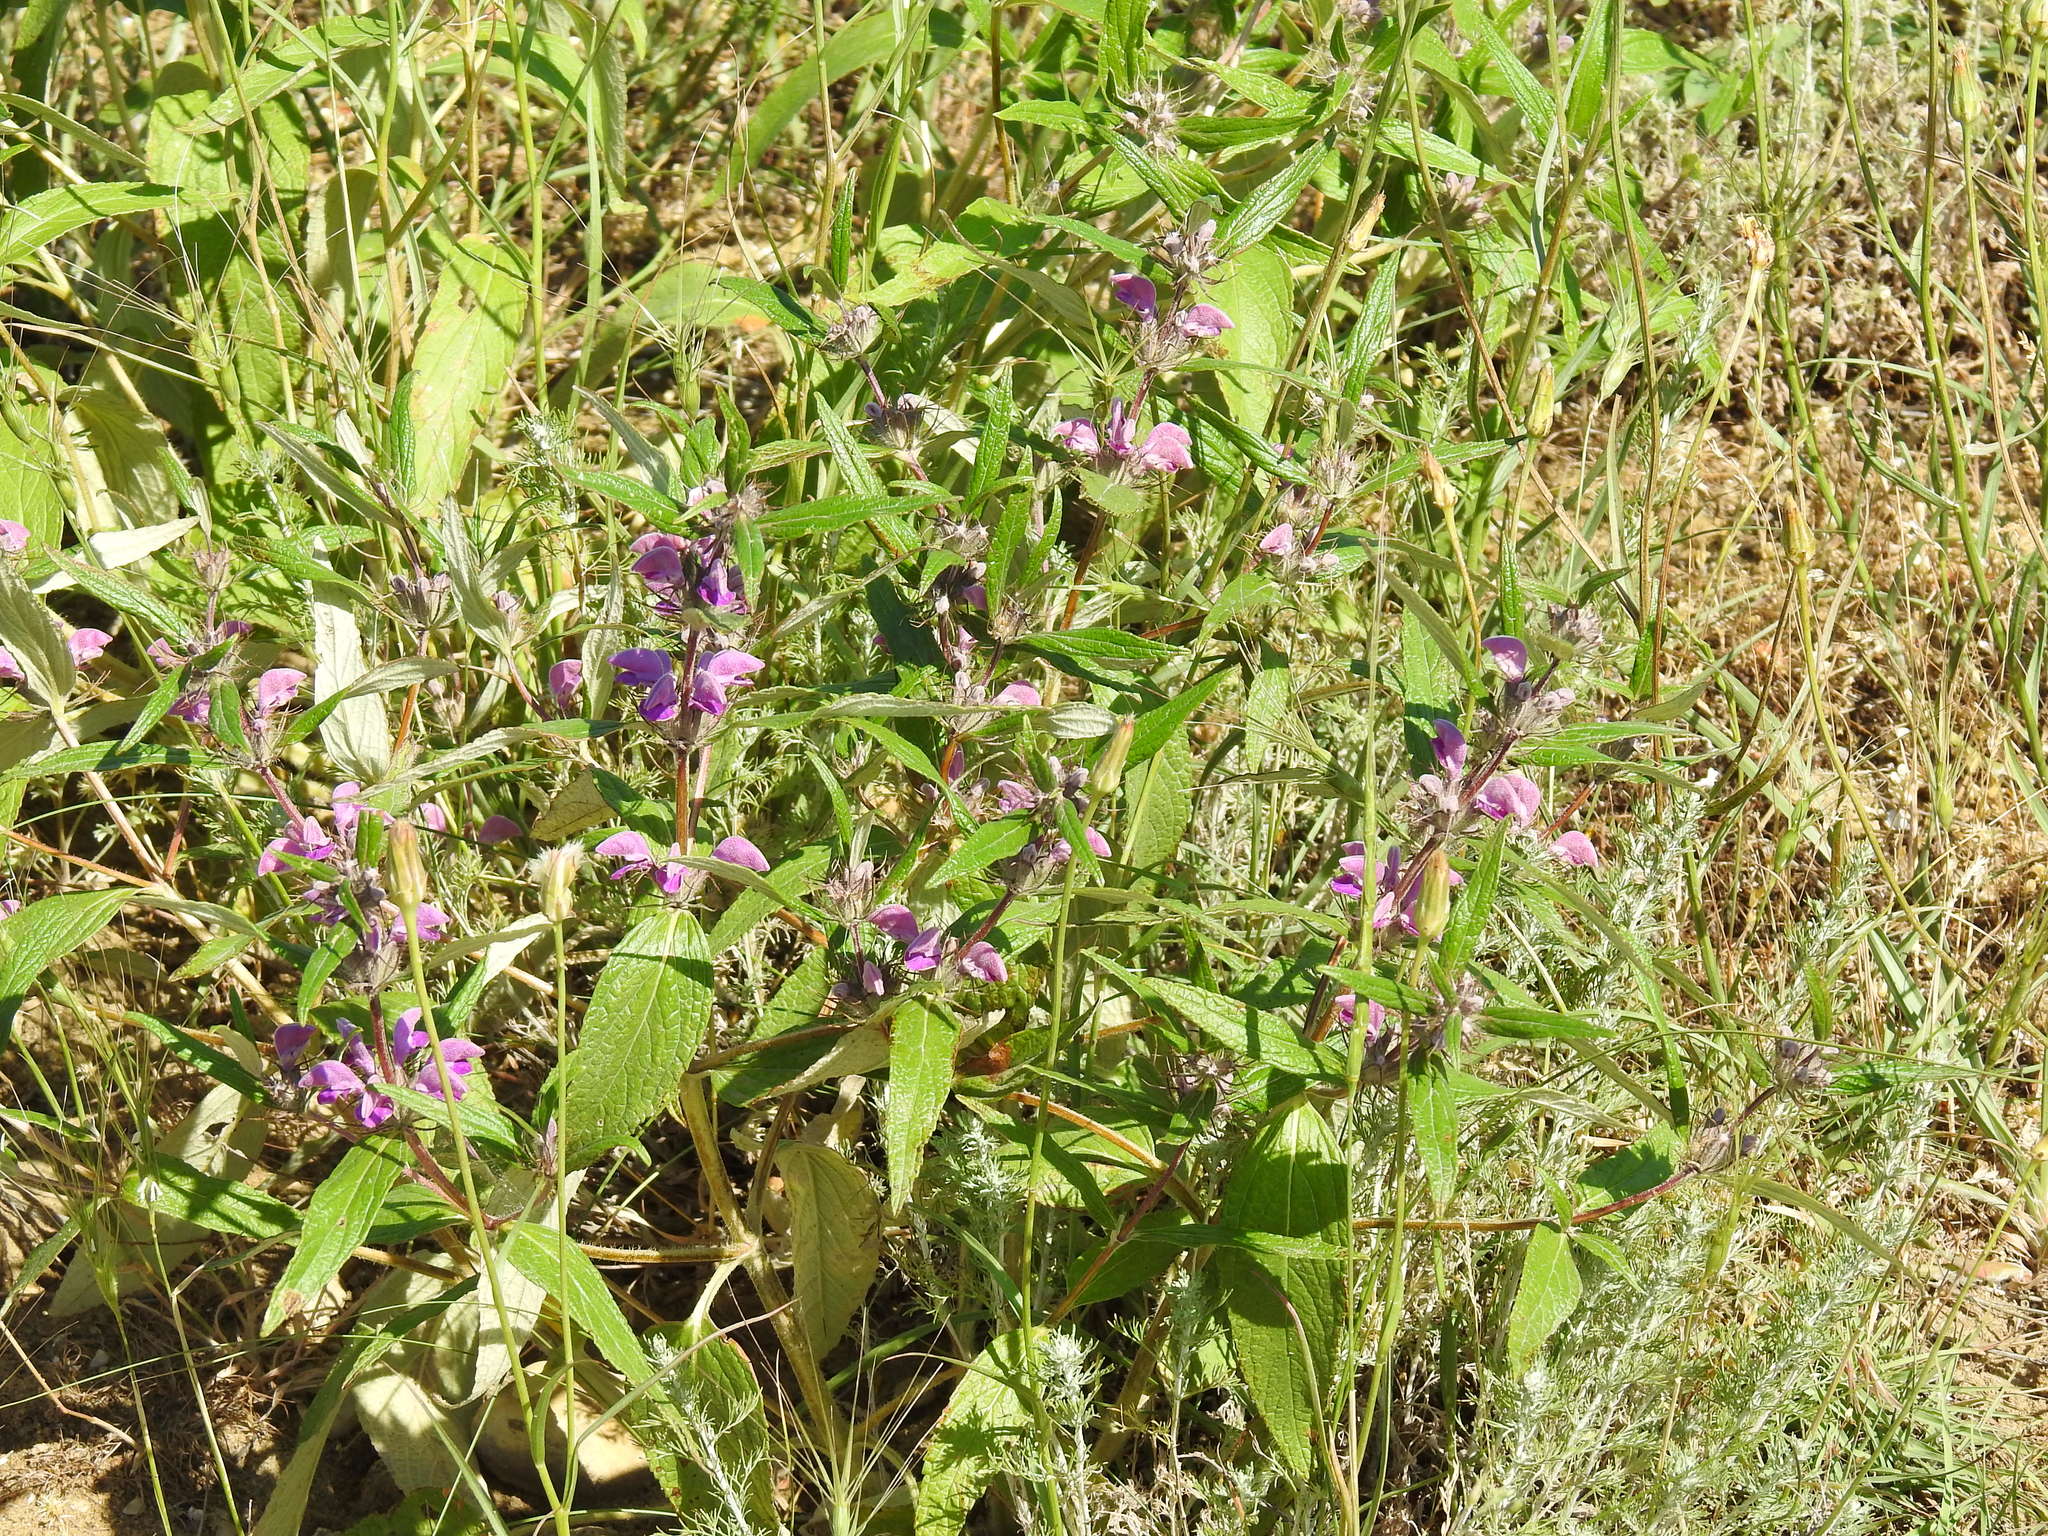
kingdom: Plantae
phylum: Tracheophyta
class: Magnoliopsida
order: Lamiales
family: Lamiaceae
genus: Phlomis
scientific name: Phlomis herba-venti
